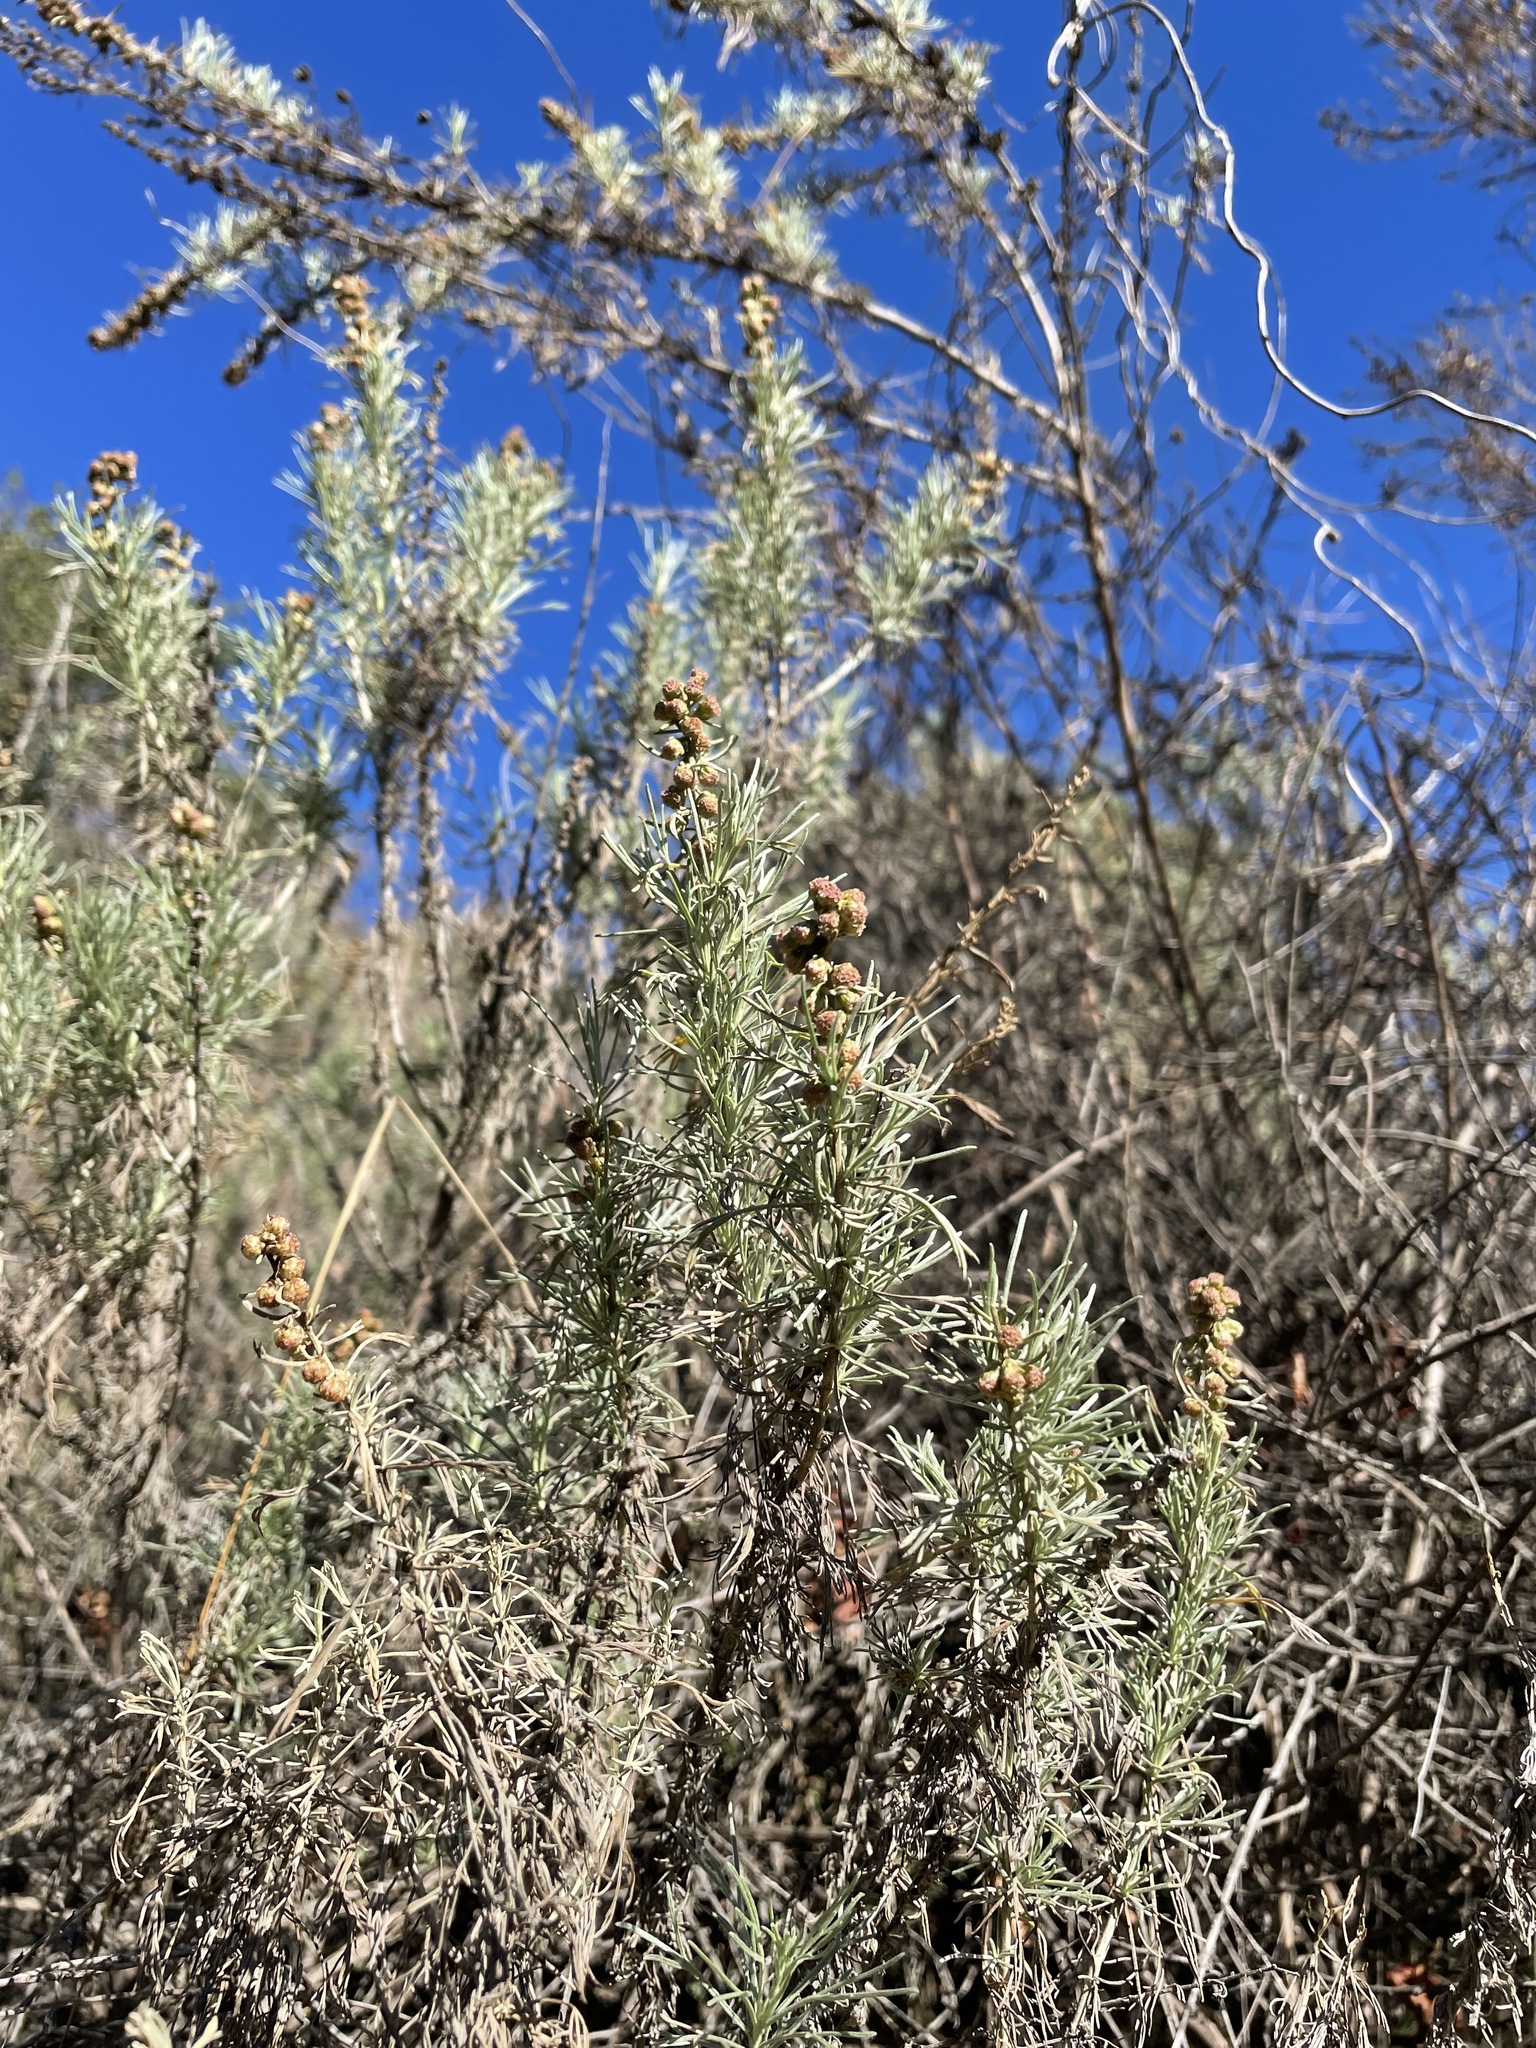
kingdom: Plantae
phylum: Tracheophyta
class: Magnoliopsida
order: Asterales
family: Asteraceae
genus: Artemisia
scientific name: Artemisia californica
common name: California sagebrush
